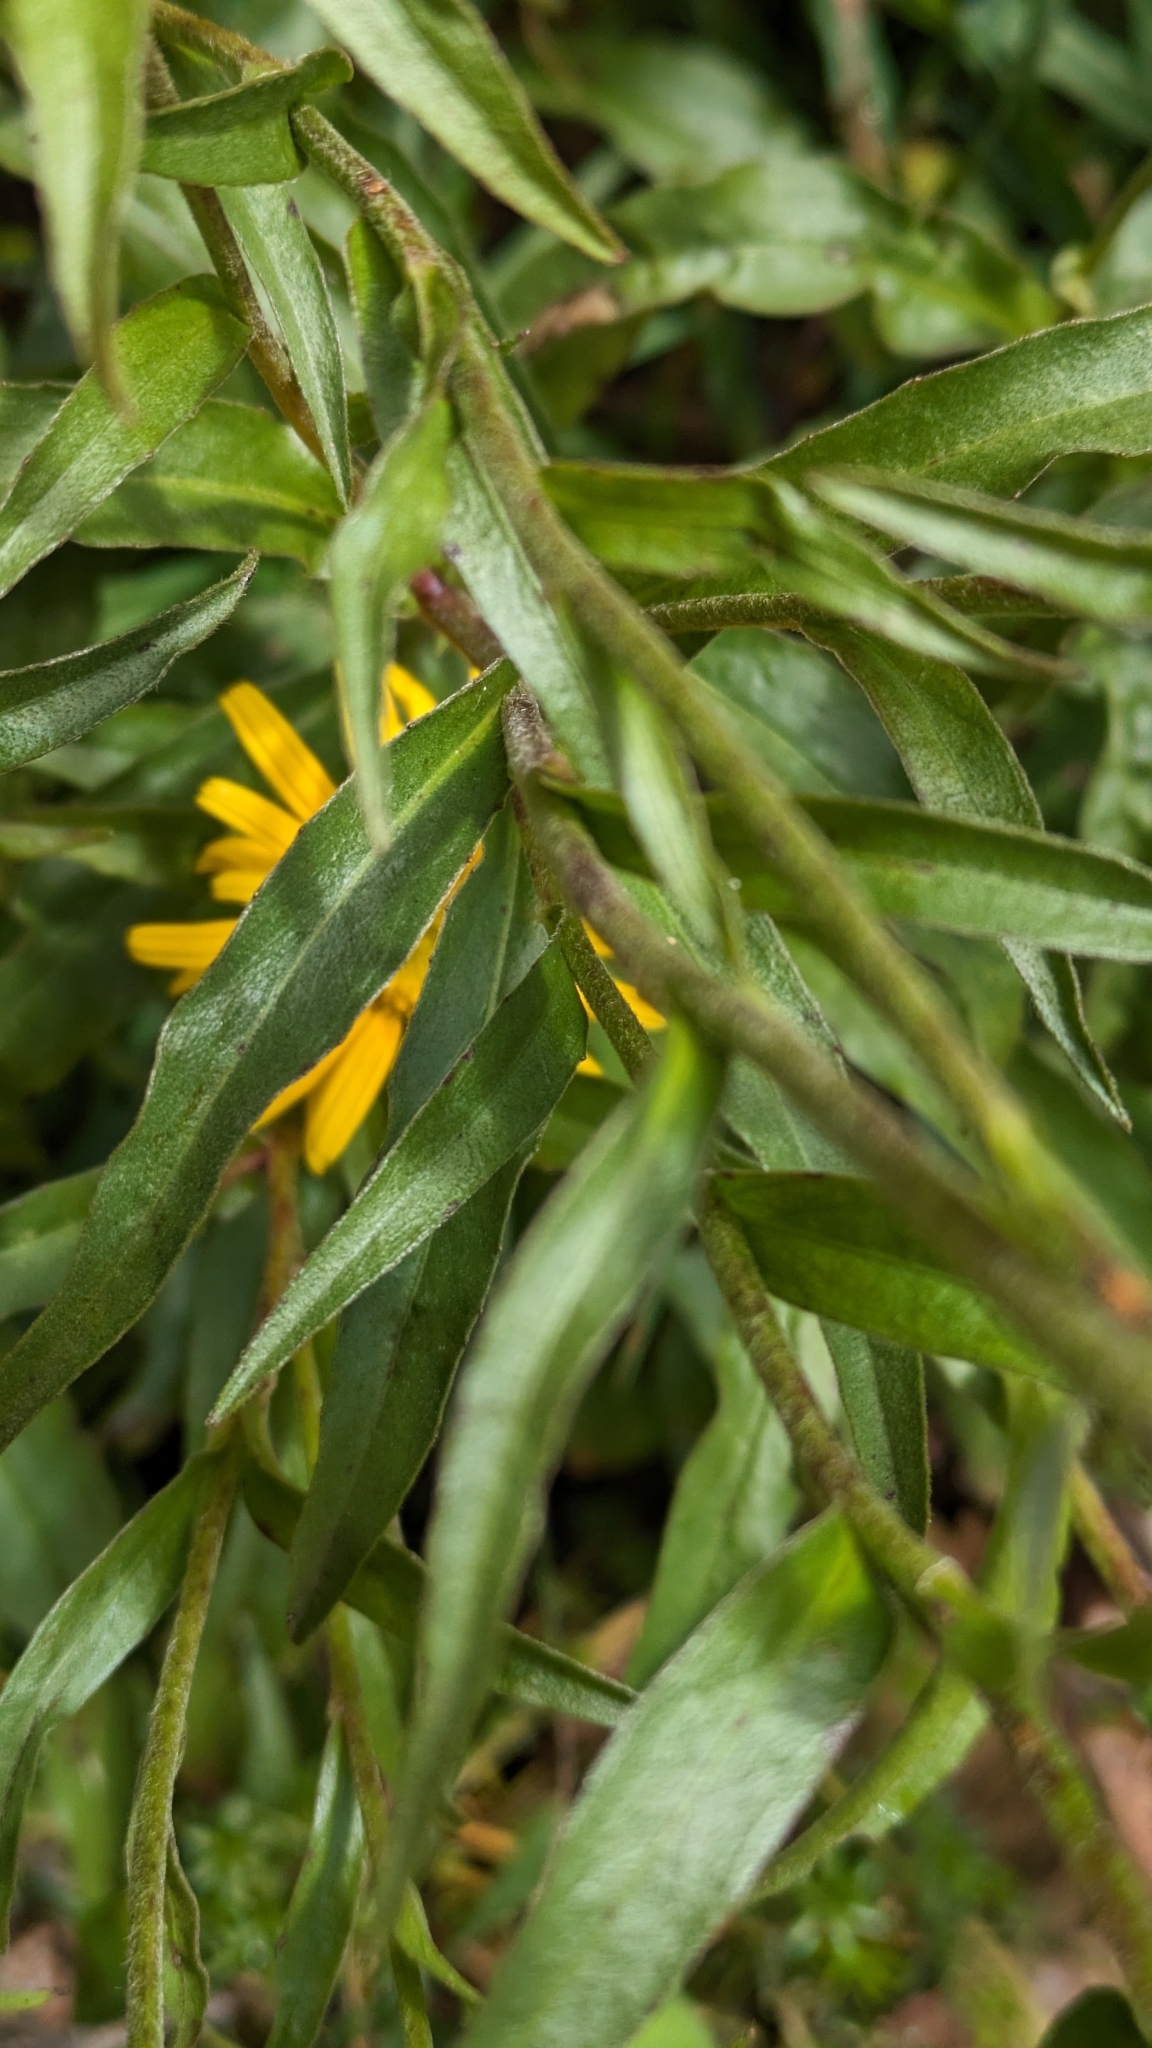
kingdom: Plantae
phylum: Tracheophyta
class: Magnoliopsida
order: Asterales
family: Asteraceae
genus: Buphthalmum
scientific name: Buphthalmum salicifolium
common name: Willow-leaved yellow-oxeye
